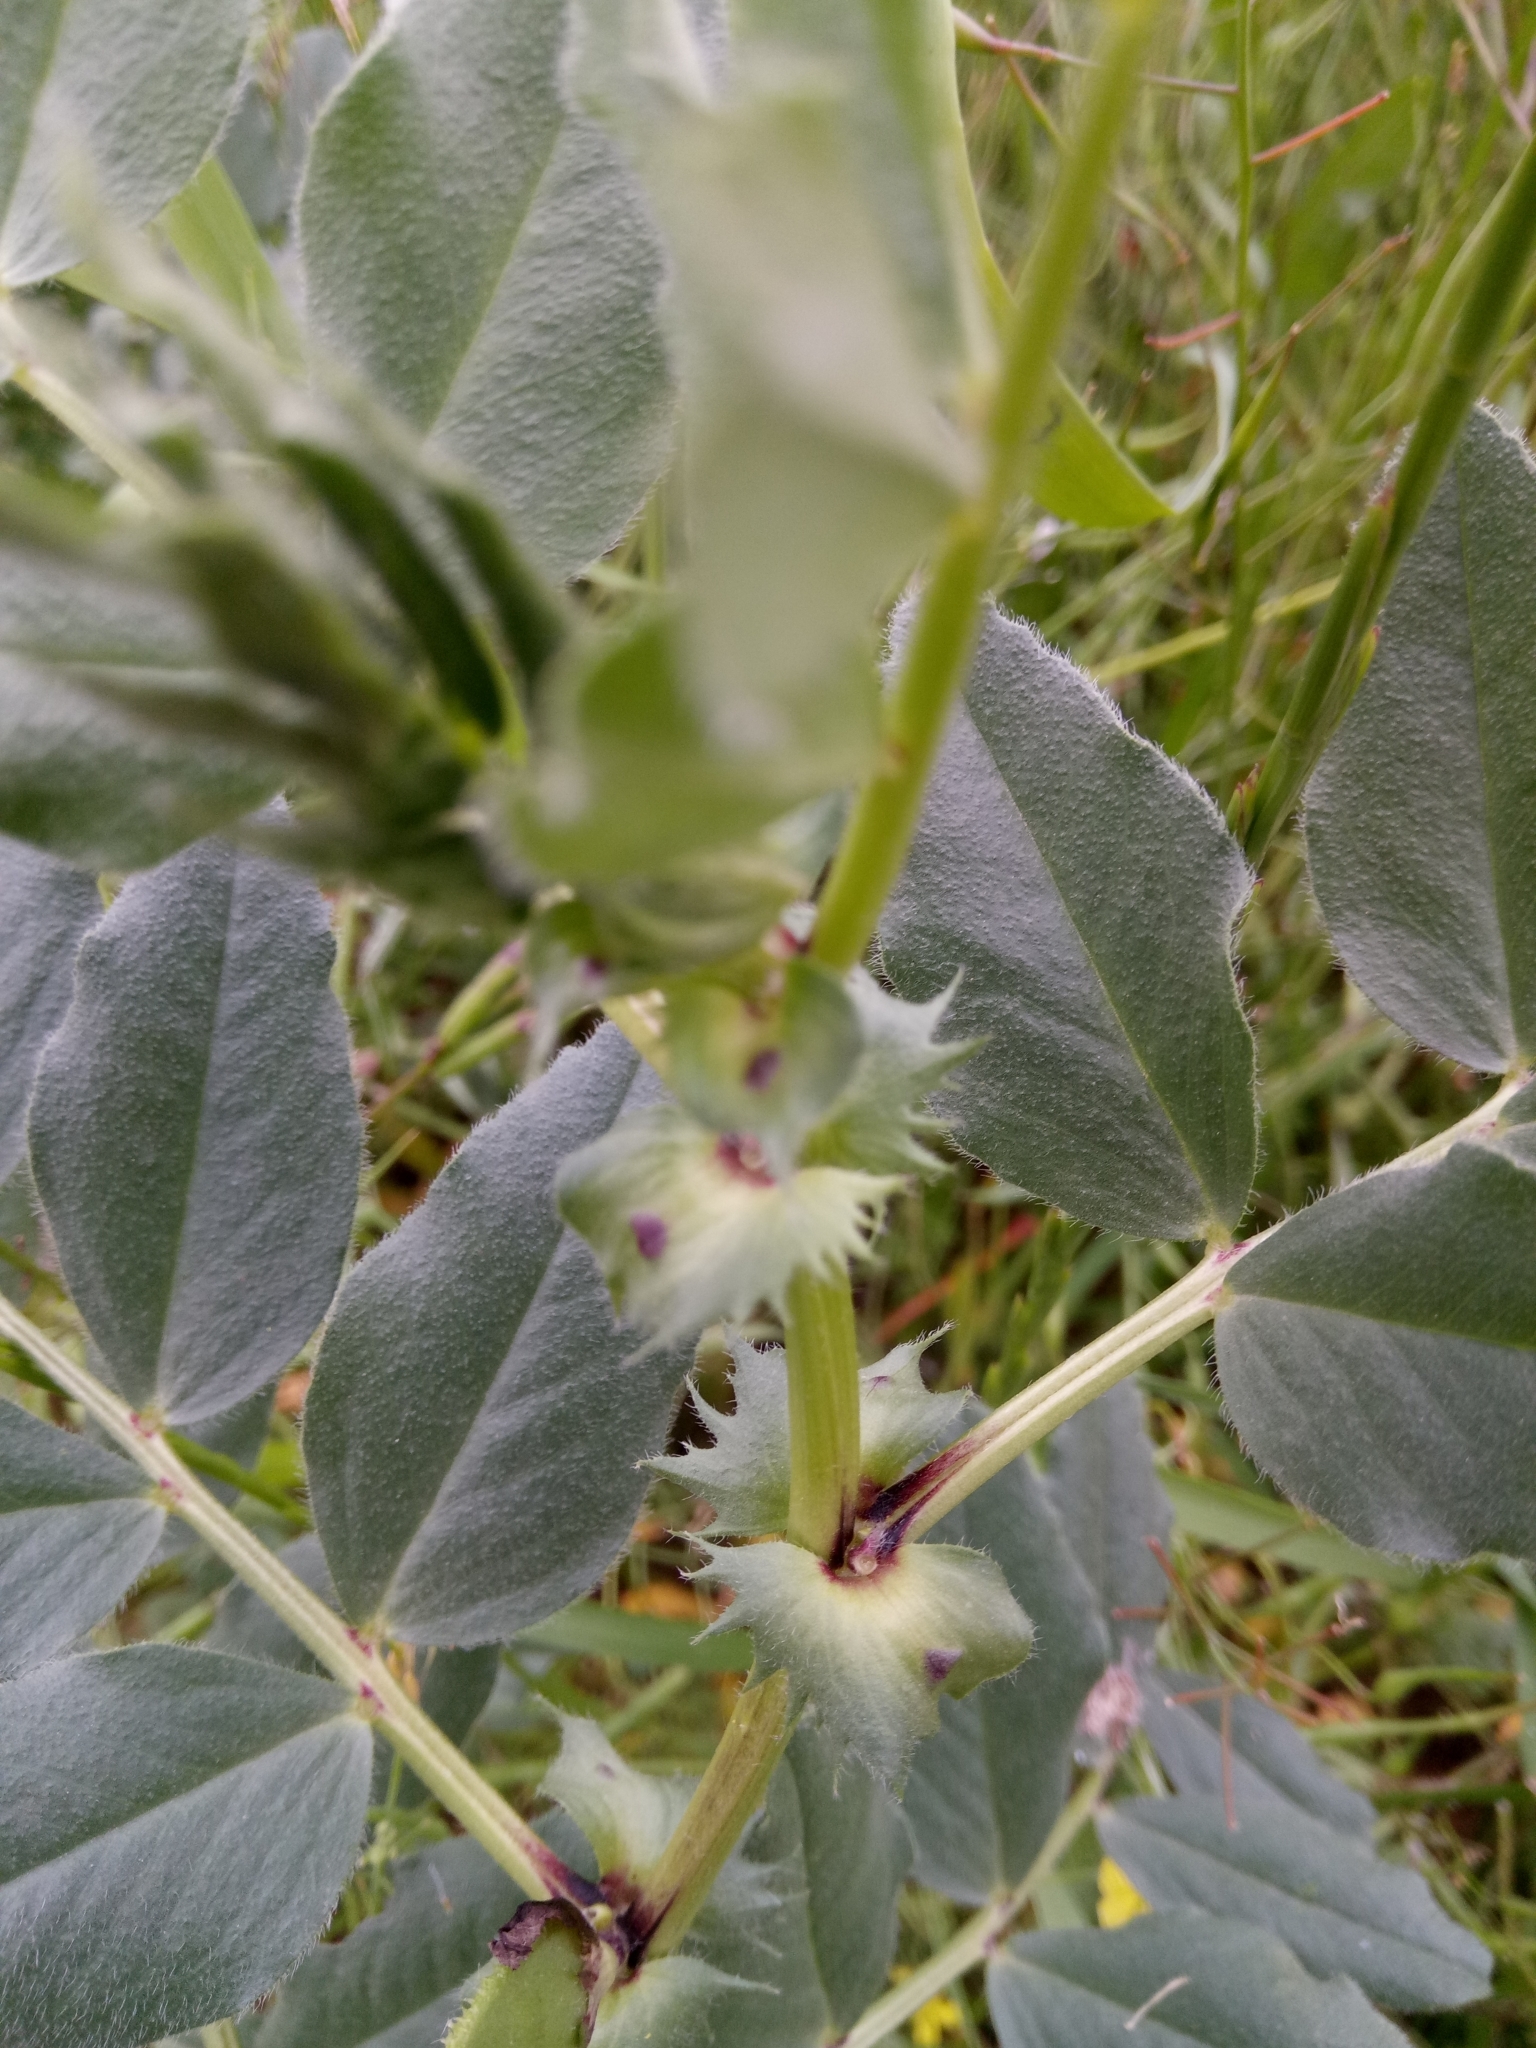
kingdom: Plantae
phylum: Tracheophyta
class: Magnoliopsida
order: Fabales
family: Fabaceae
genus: Vicia
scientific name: Vicia narbonensis
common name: Narbonne vetch
